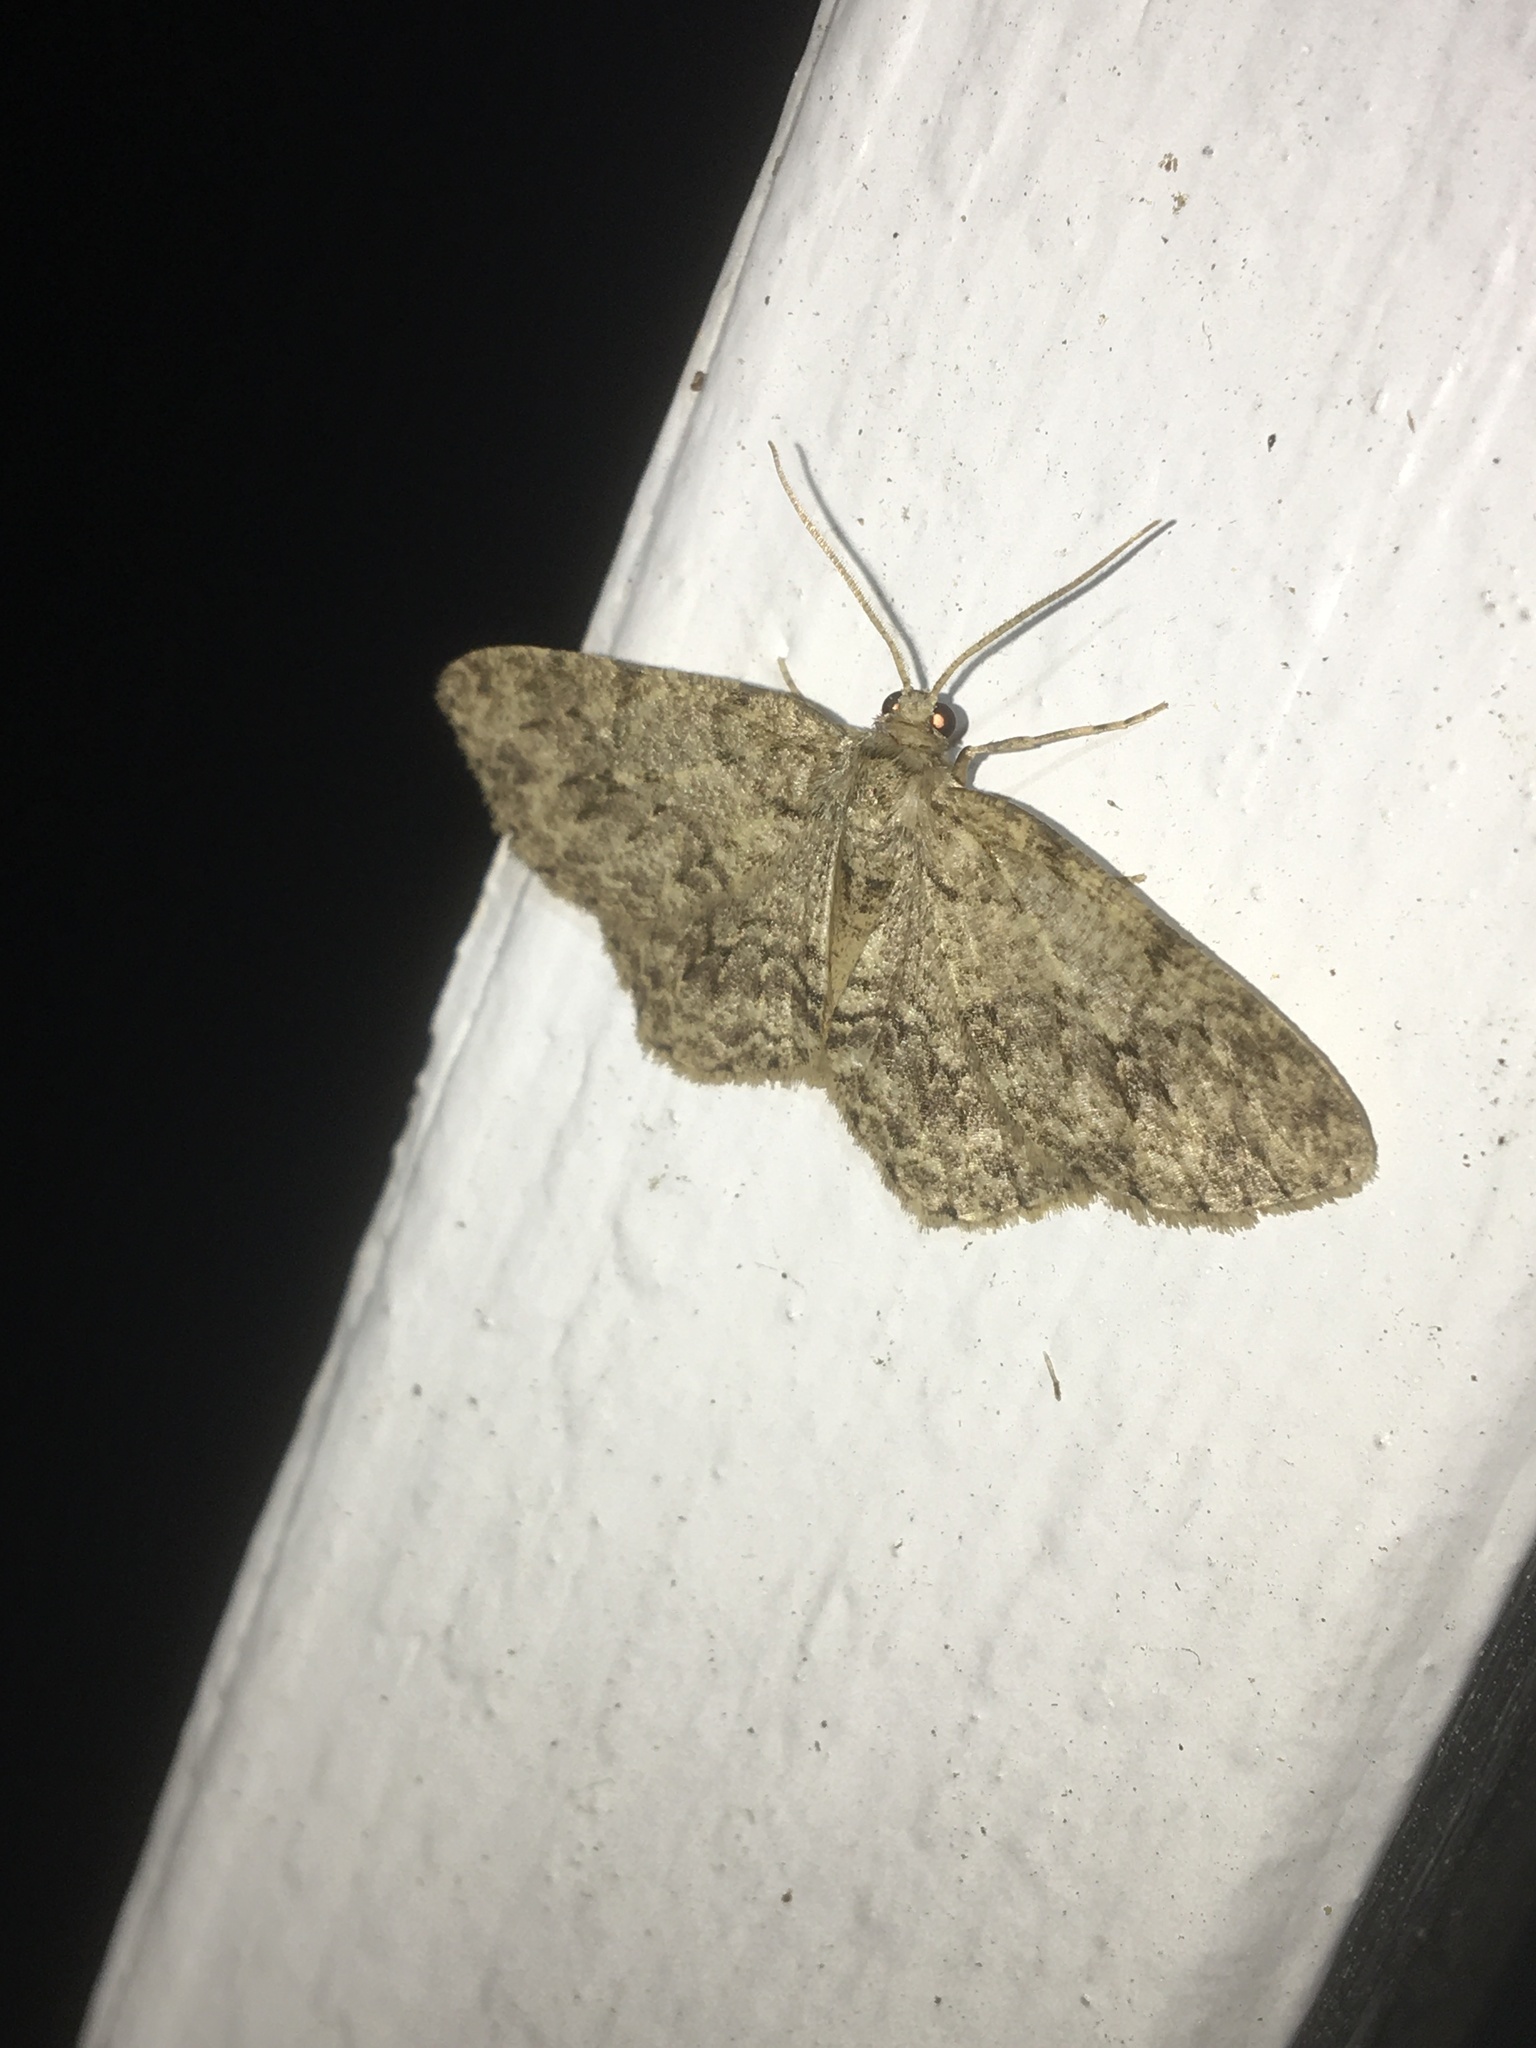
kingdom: Animalia
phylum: Arthropoda
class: Insecta
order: Lepidoptera
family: Geometridae
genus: Ectropis
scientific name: Ectropis crepuscularia
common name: Engrailed
